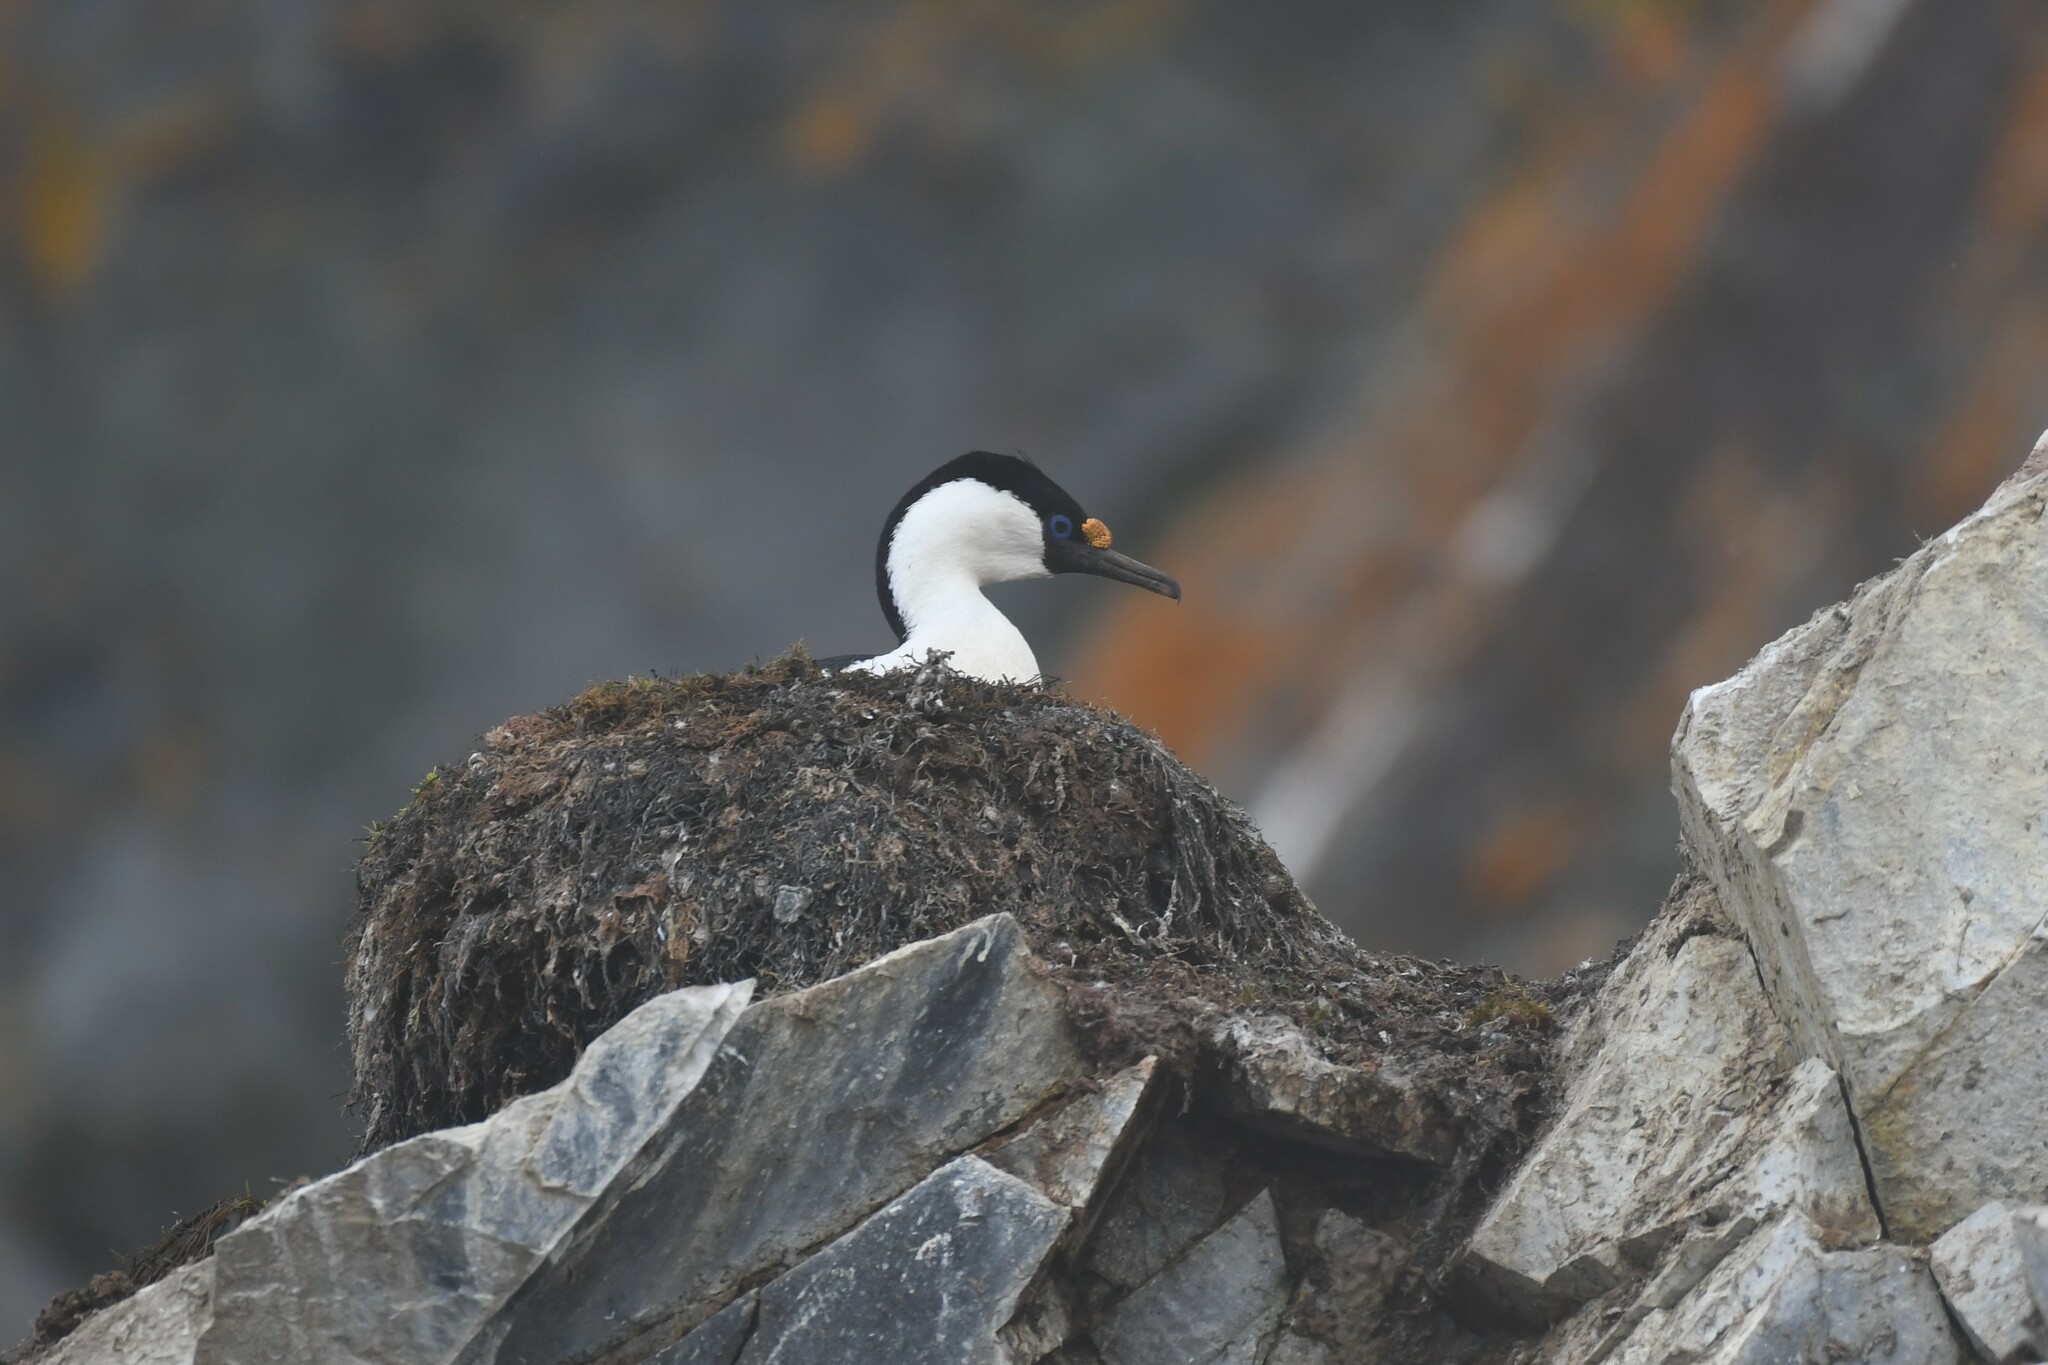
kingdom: Animalia
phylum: Chordata
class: Aves
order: Suliformes
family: Phalacrocoracidae
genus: Leucocarbo
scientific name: Leucocarbo atriceps
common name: Imperial shag
